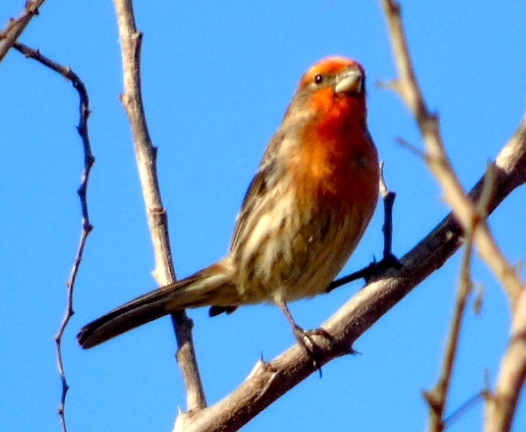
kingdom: Animalia
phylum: Chordata
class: Aves
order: Passeriformes
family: Fringillidae
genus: Haemorhous
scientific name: Haemorhous mexicanus
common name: House finch
